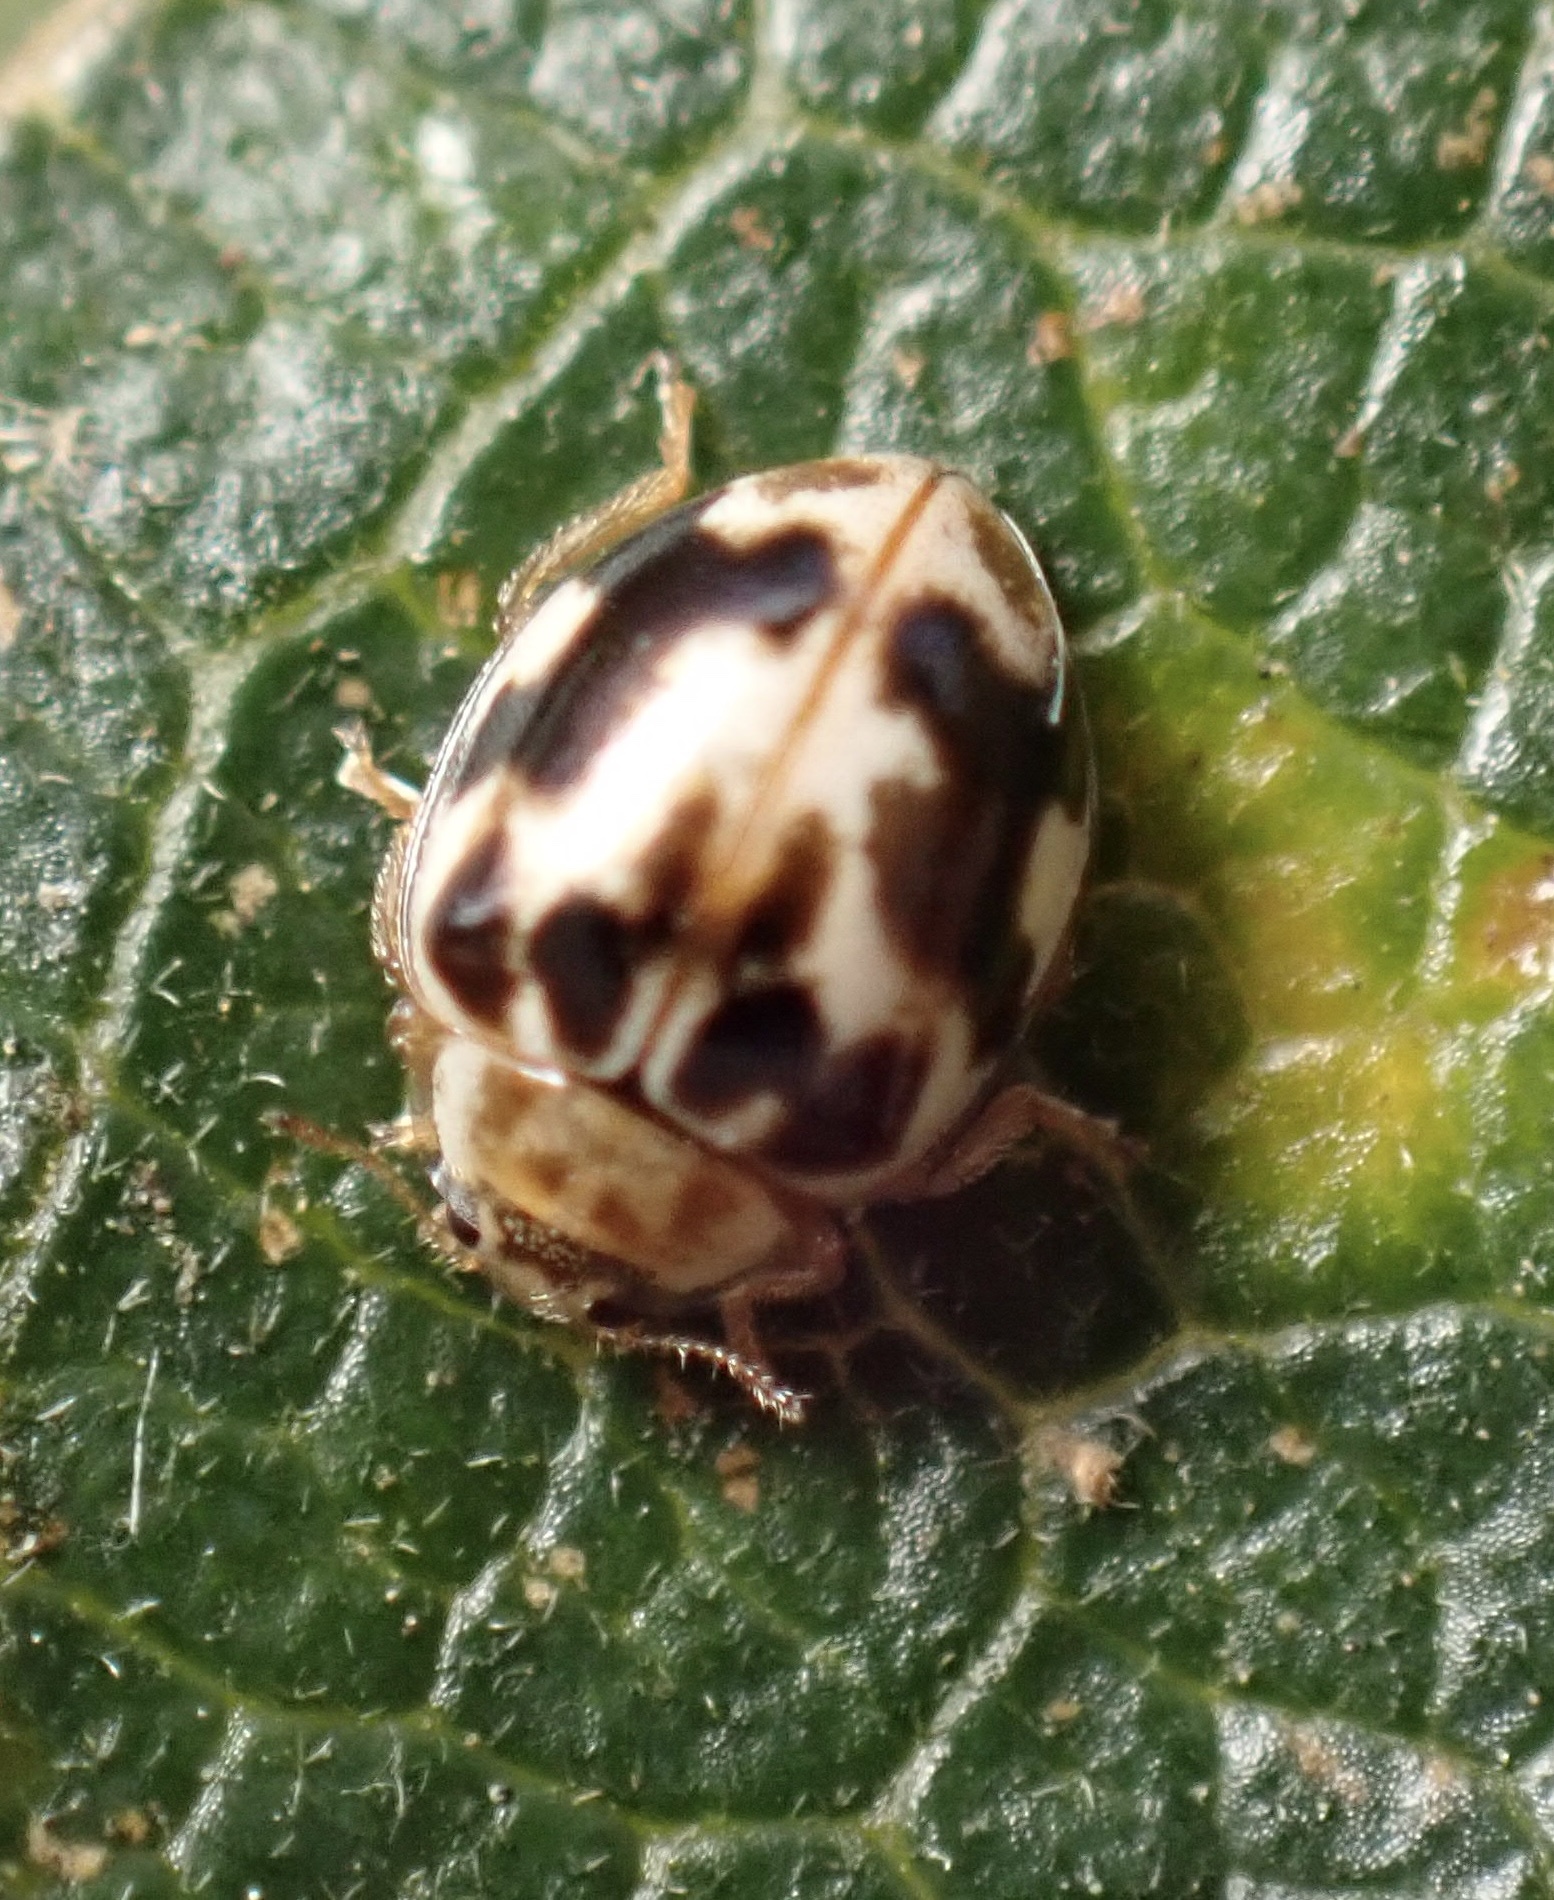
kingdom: Animalia
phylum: Arthropoda
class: Insecta
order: Coleoptera
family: Coccinellidae
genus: Psyllobora
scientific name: Psyllobora vigintimaculata
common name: Ladybird beetle
